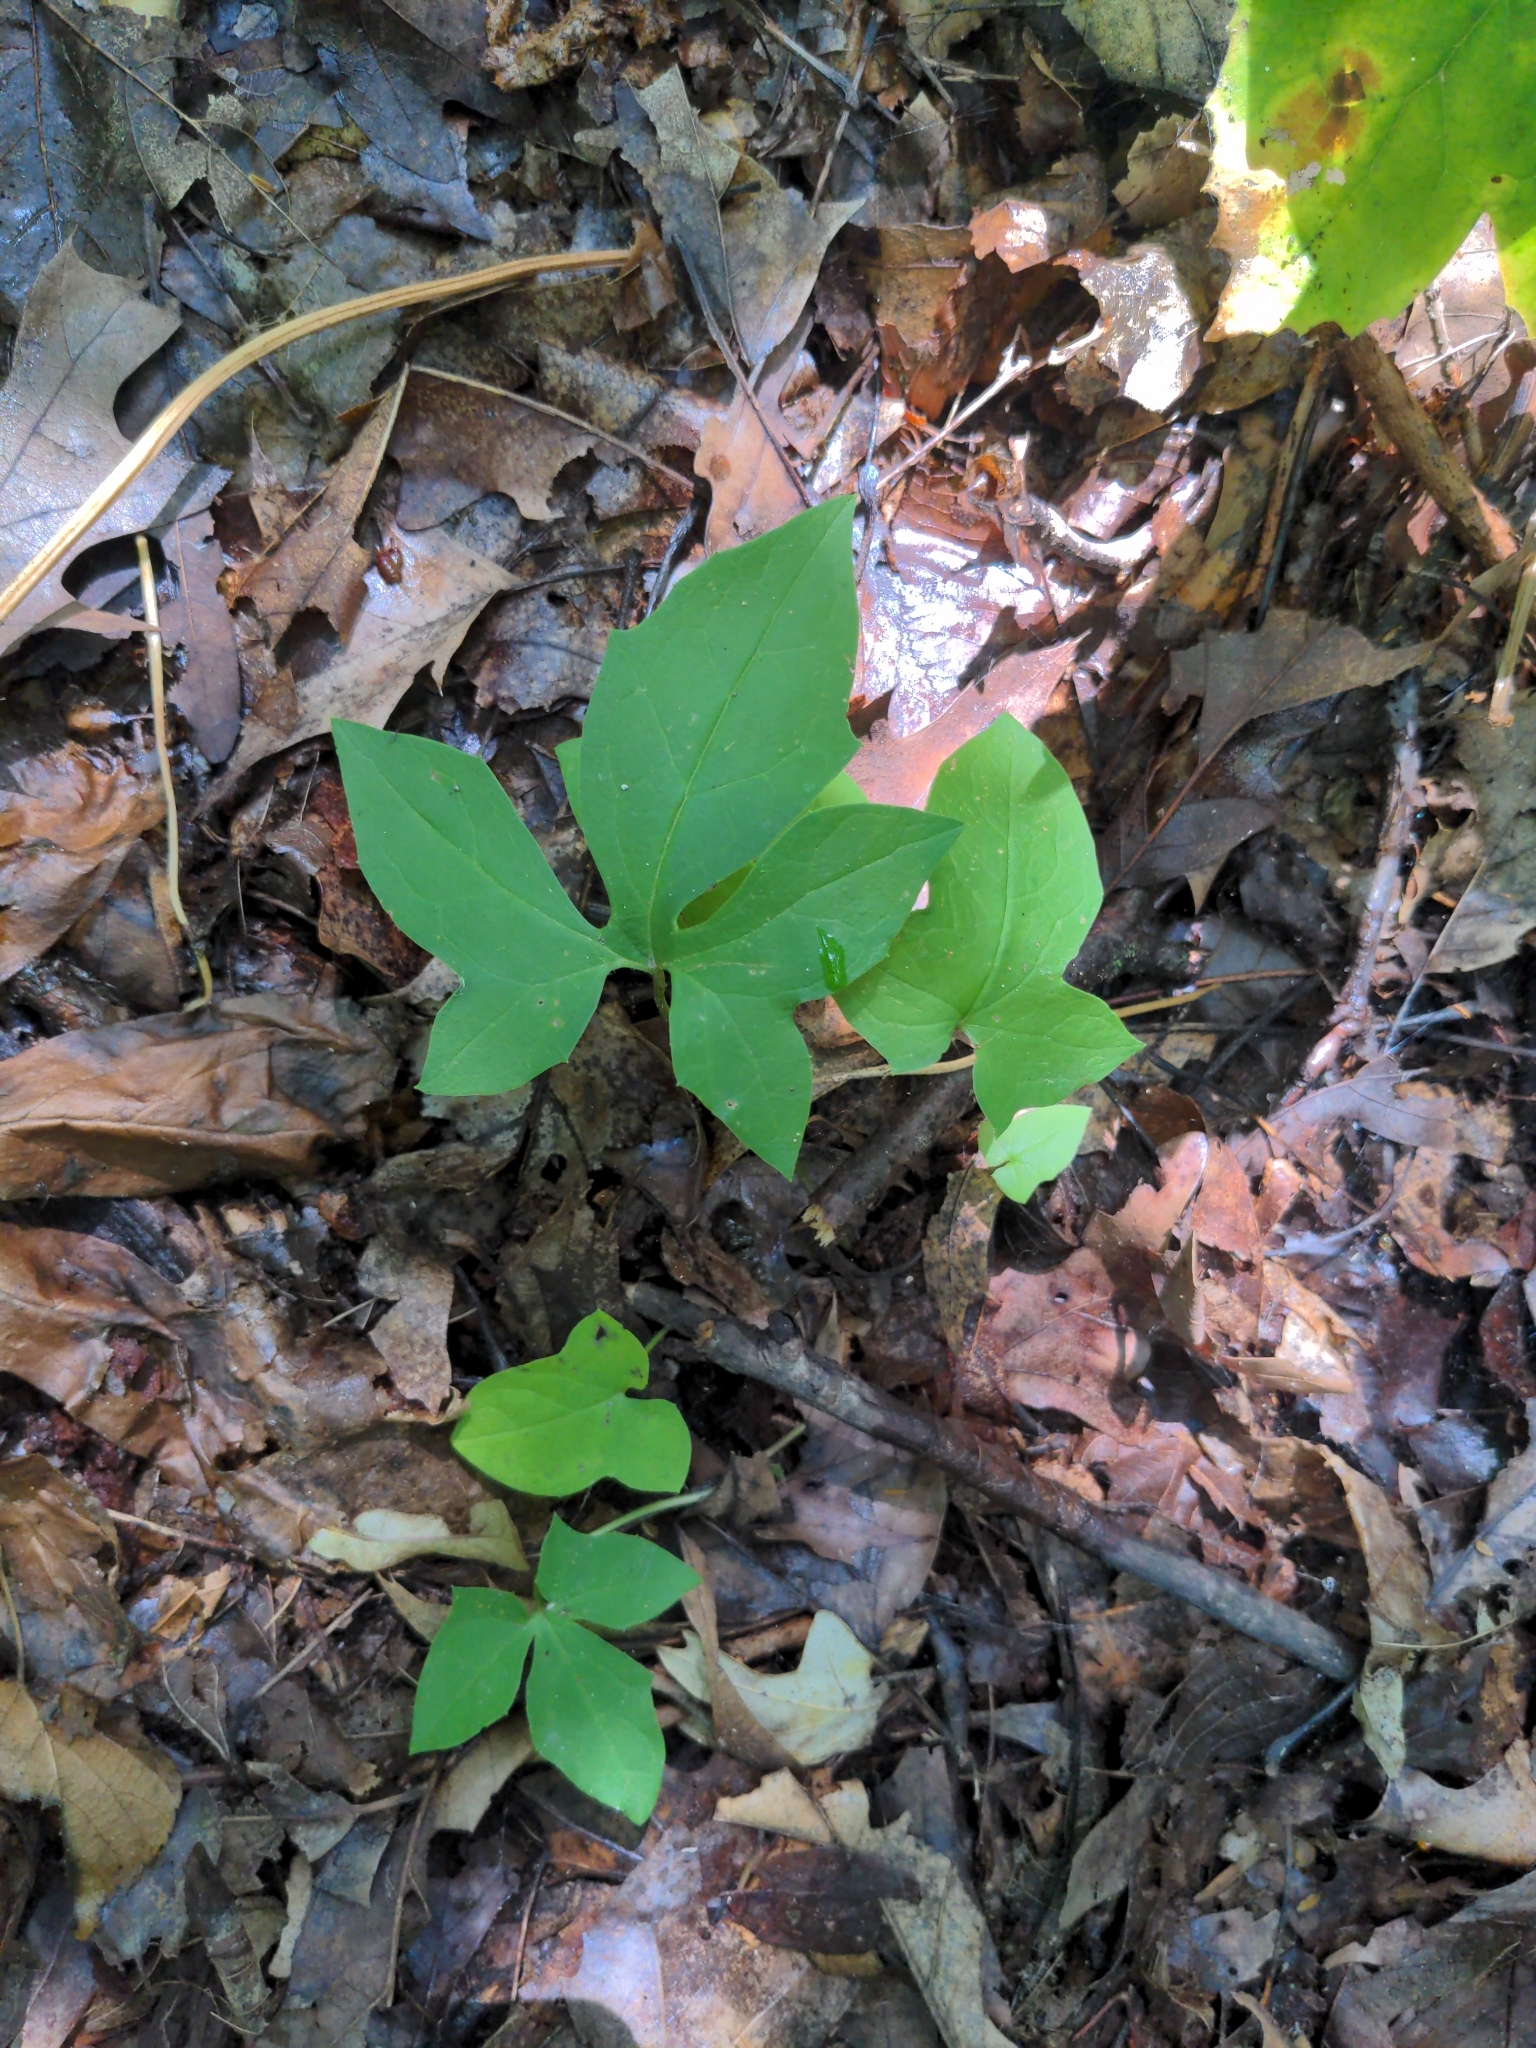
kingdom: Plantae
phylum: Tracheophyta
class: Magnoliopsida
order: Asterales
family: Asteraceae
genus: Nabalus
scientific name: Nabalus altissima
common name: Tall rattlesnakeroot
